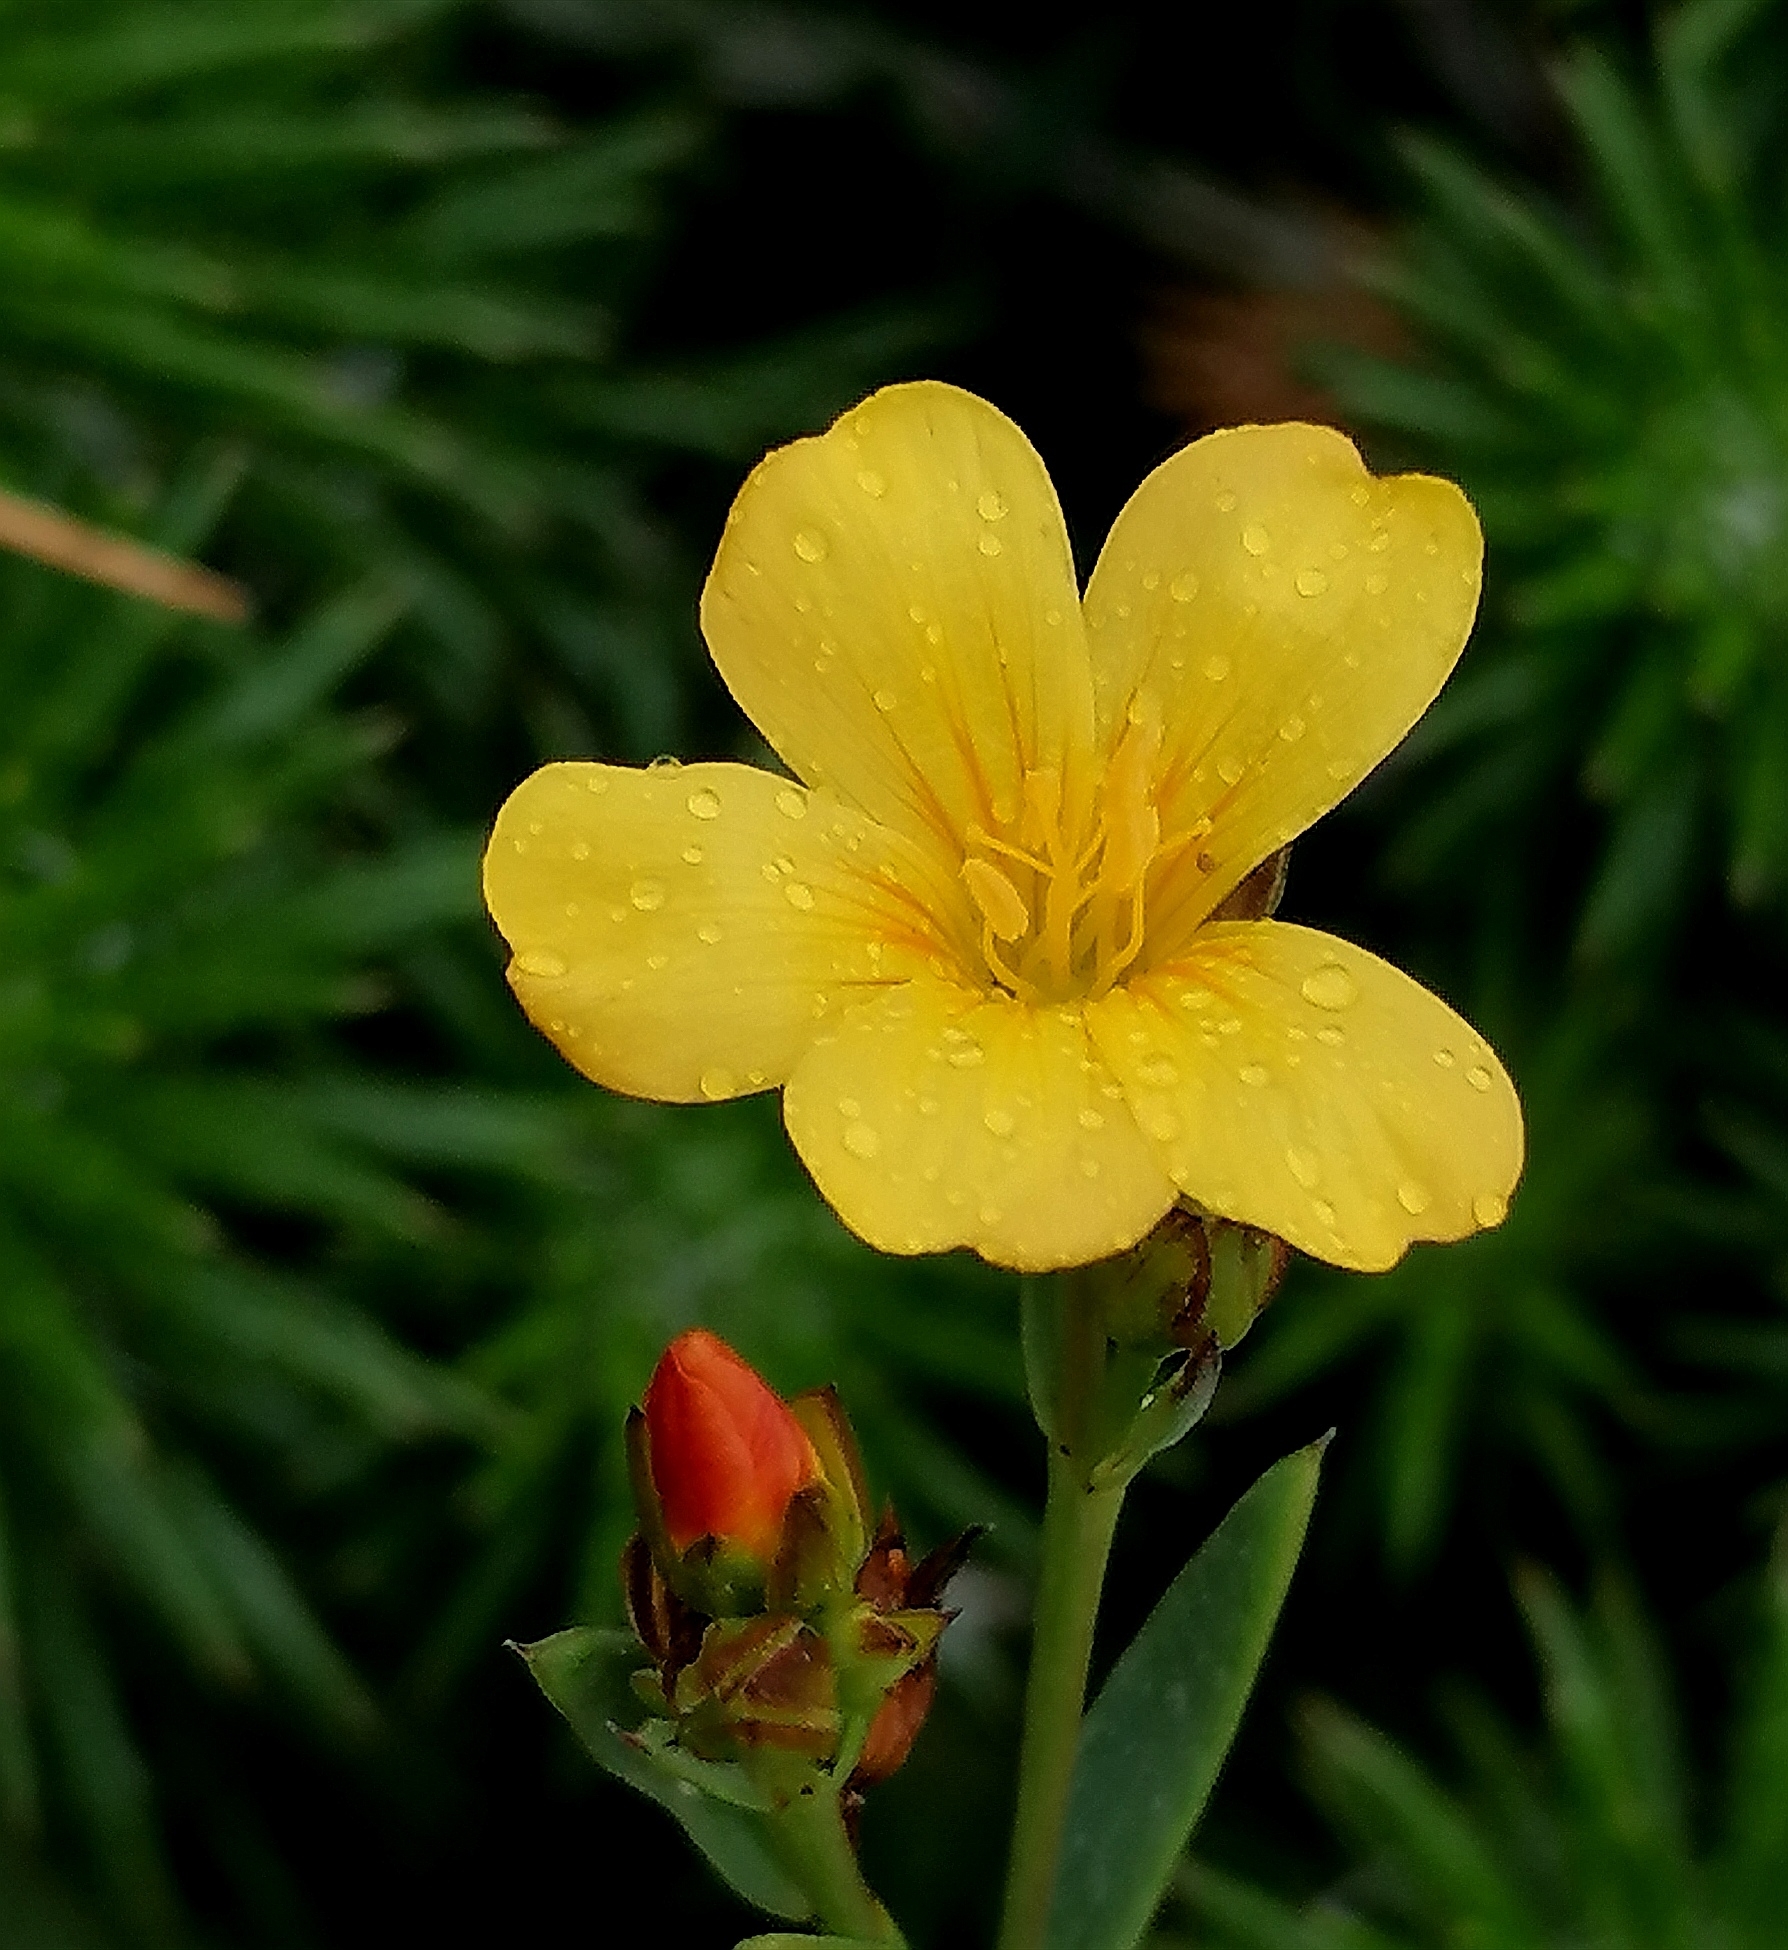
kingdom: Plantae
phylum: Tracheophyta
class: Magnoliopsida
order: Malpighiales
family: Linaceae
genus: Linum
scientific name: Linum africanum
